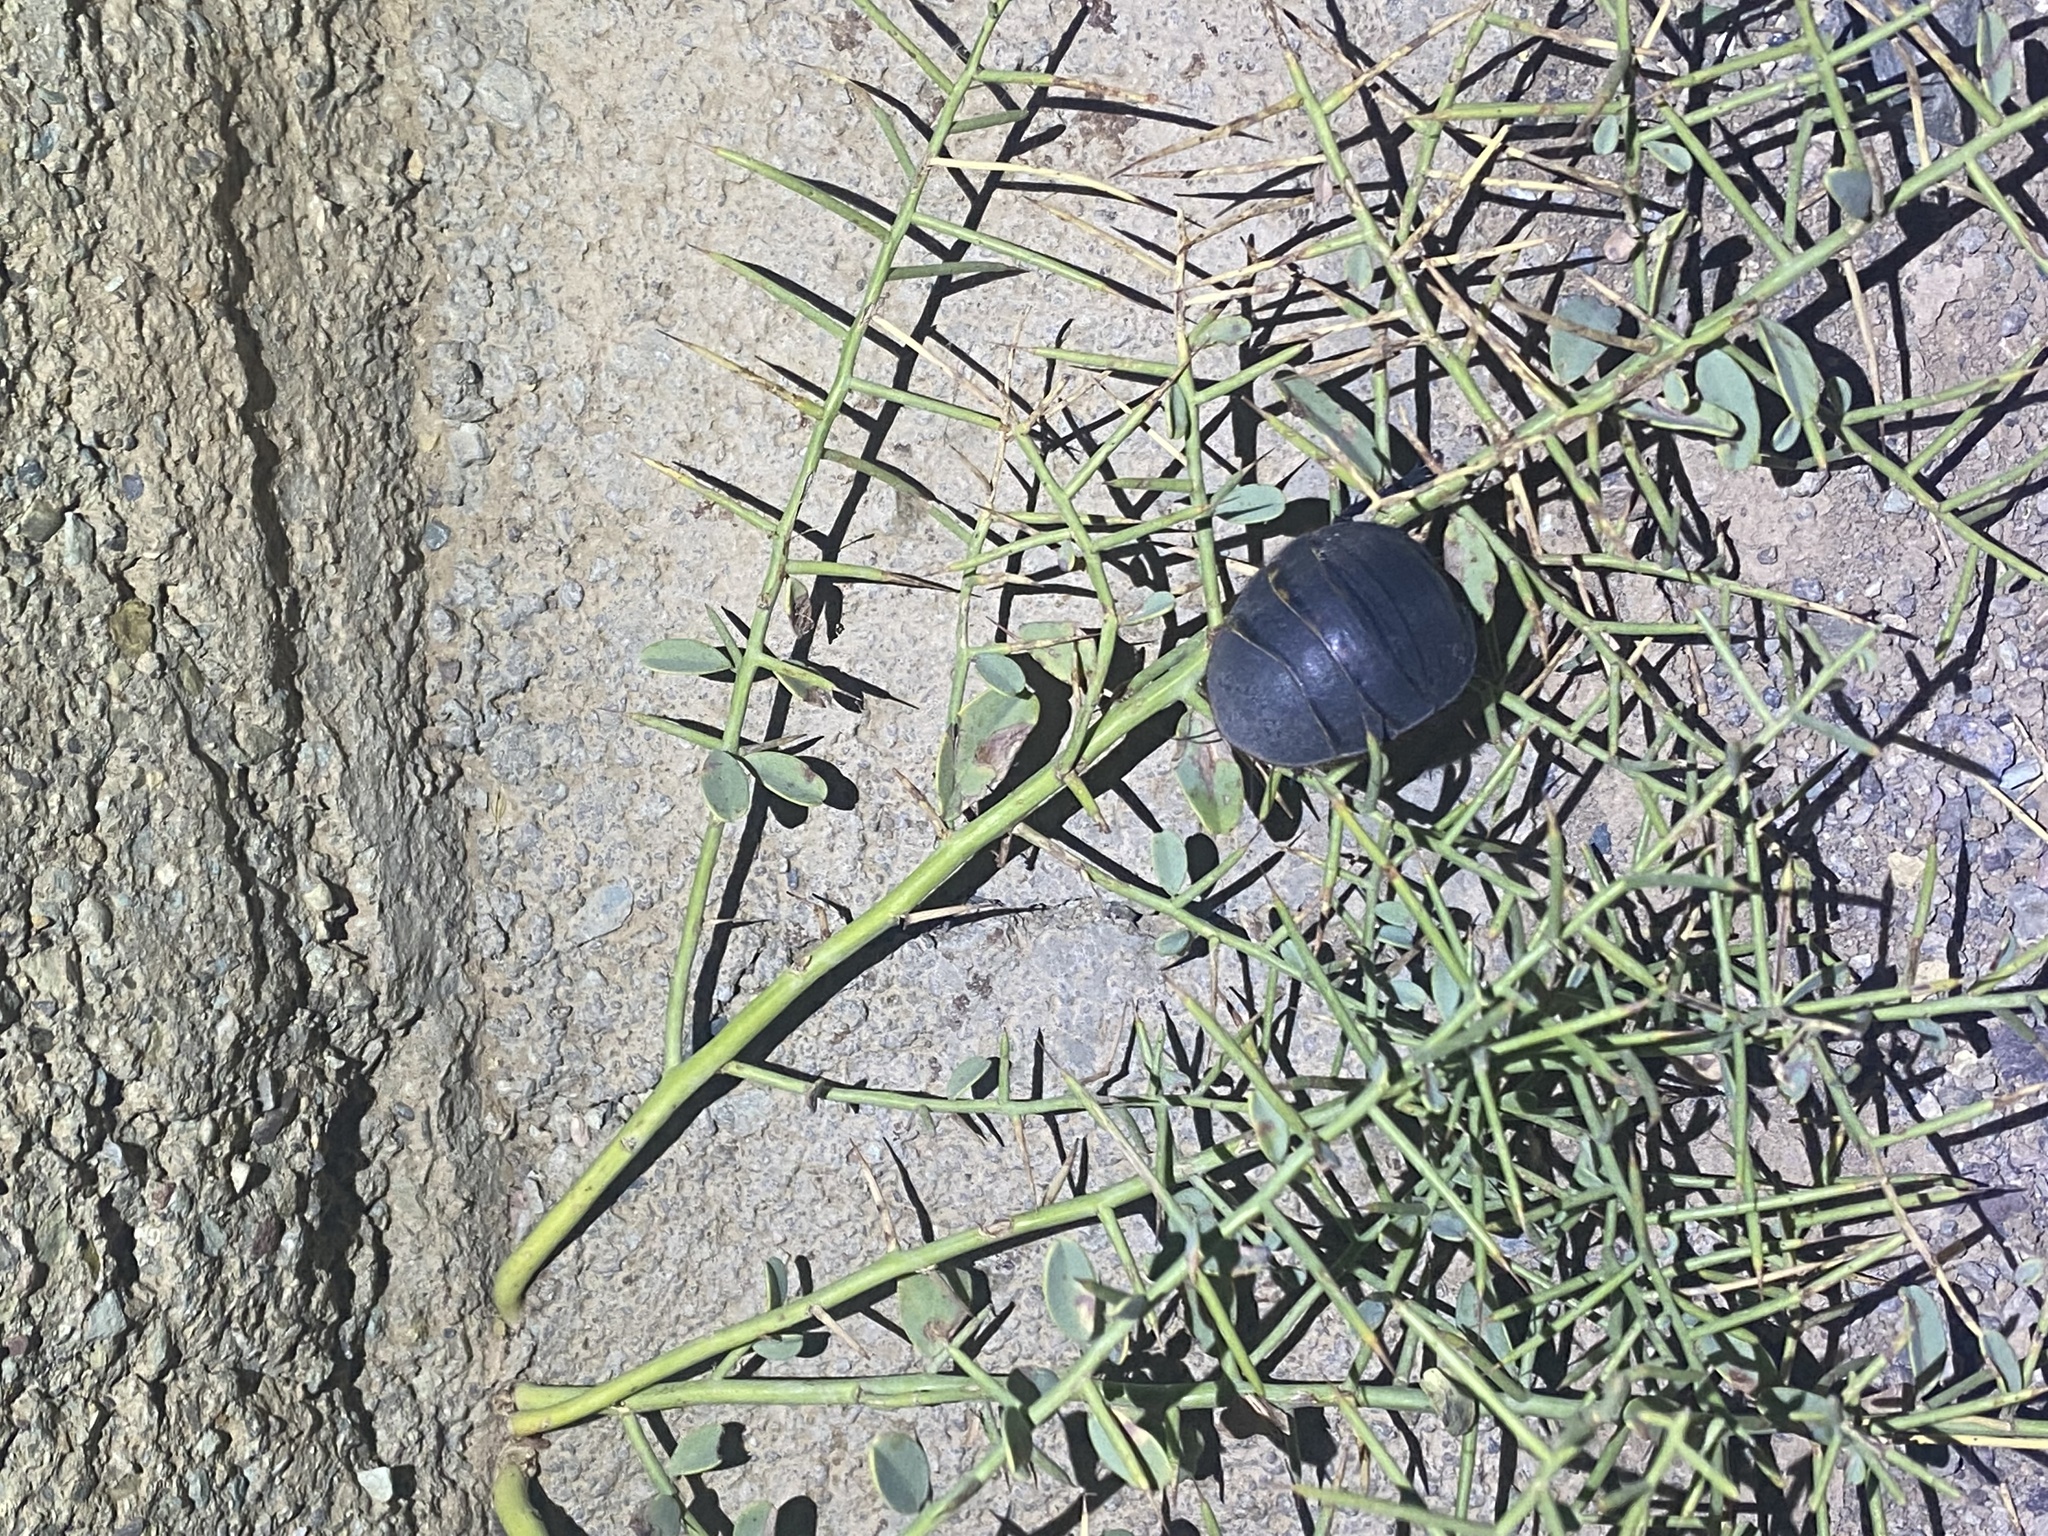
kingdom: Animalia
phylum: Arthropoda
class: Insecta
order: Blattodea
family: Corydiidae
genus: Polyphaga
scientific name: Polyphaga aegyptiaca
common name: Egyptian cockroach
